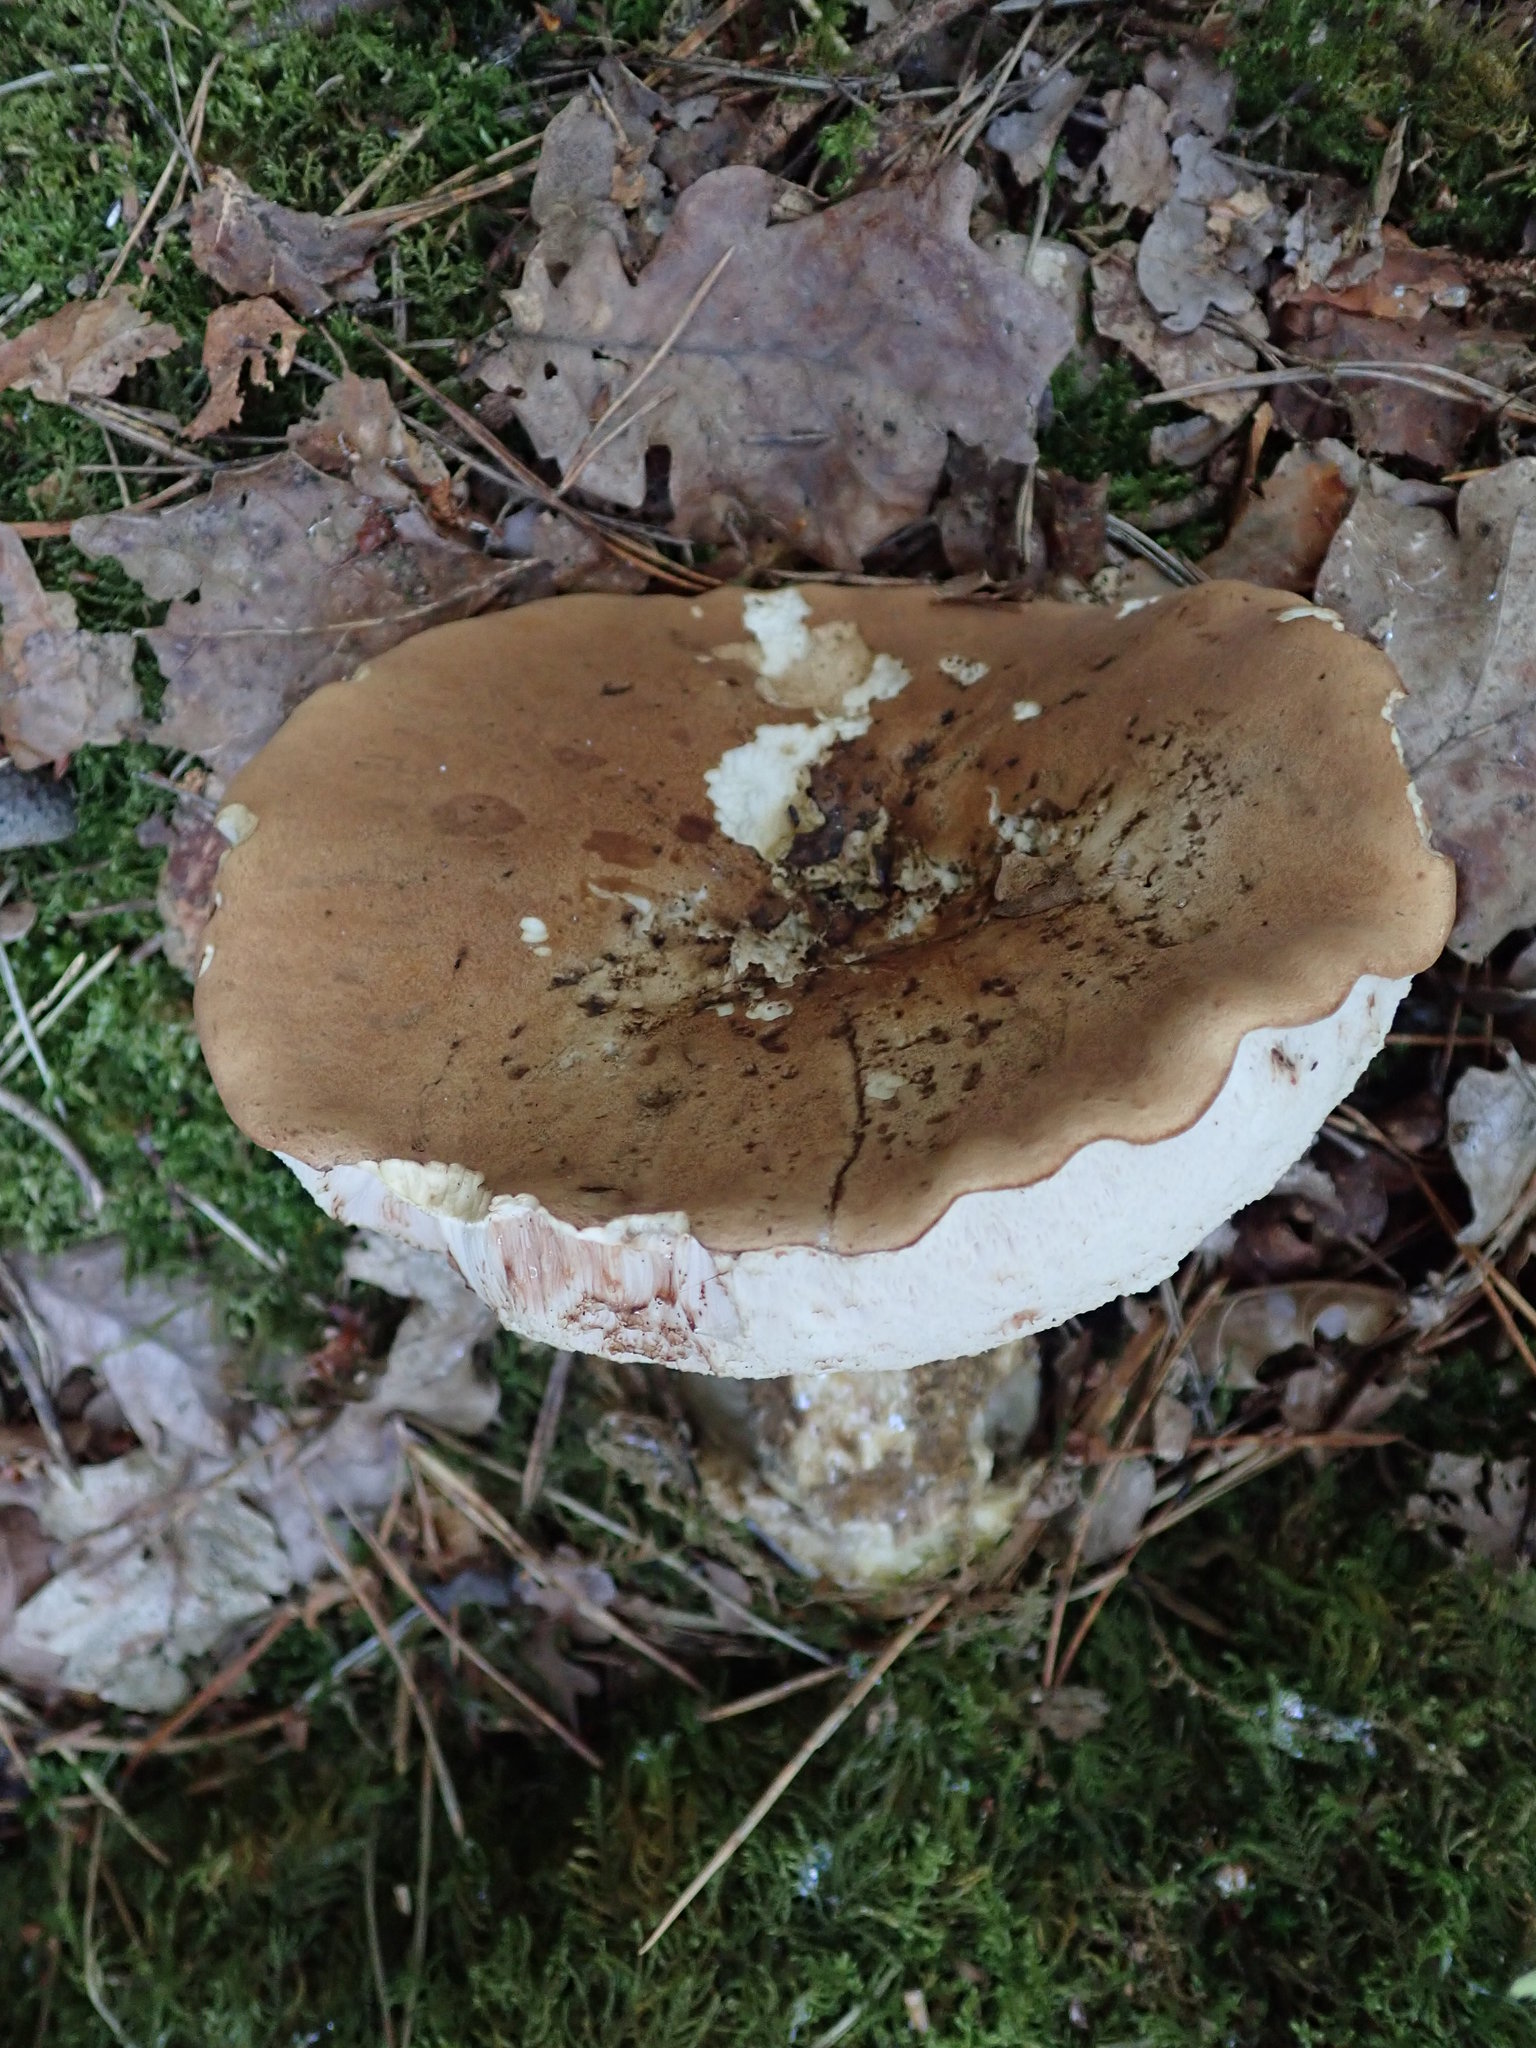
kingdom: Fungi
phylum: Basidiomycota
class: Agaricomycetes
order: Boletales
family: Boletaceae
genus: Tylopilus
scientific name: Tylopilus felleus
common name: Bitter bolete
